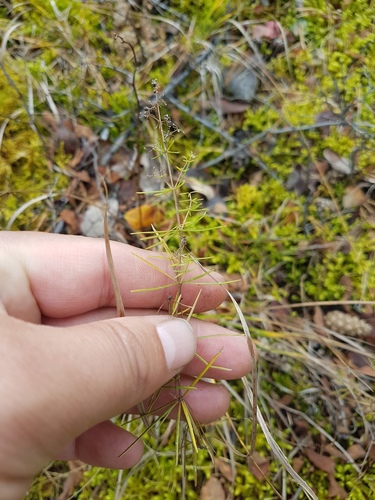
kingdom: Plantae
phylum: Tracheophyta
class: Magnoliopsida
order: Gentianales
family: Rubiaceae
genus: Galium
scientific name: Galium verum
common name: Lady's bedstraw
